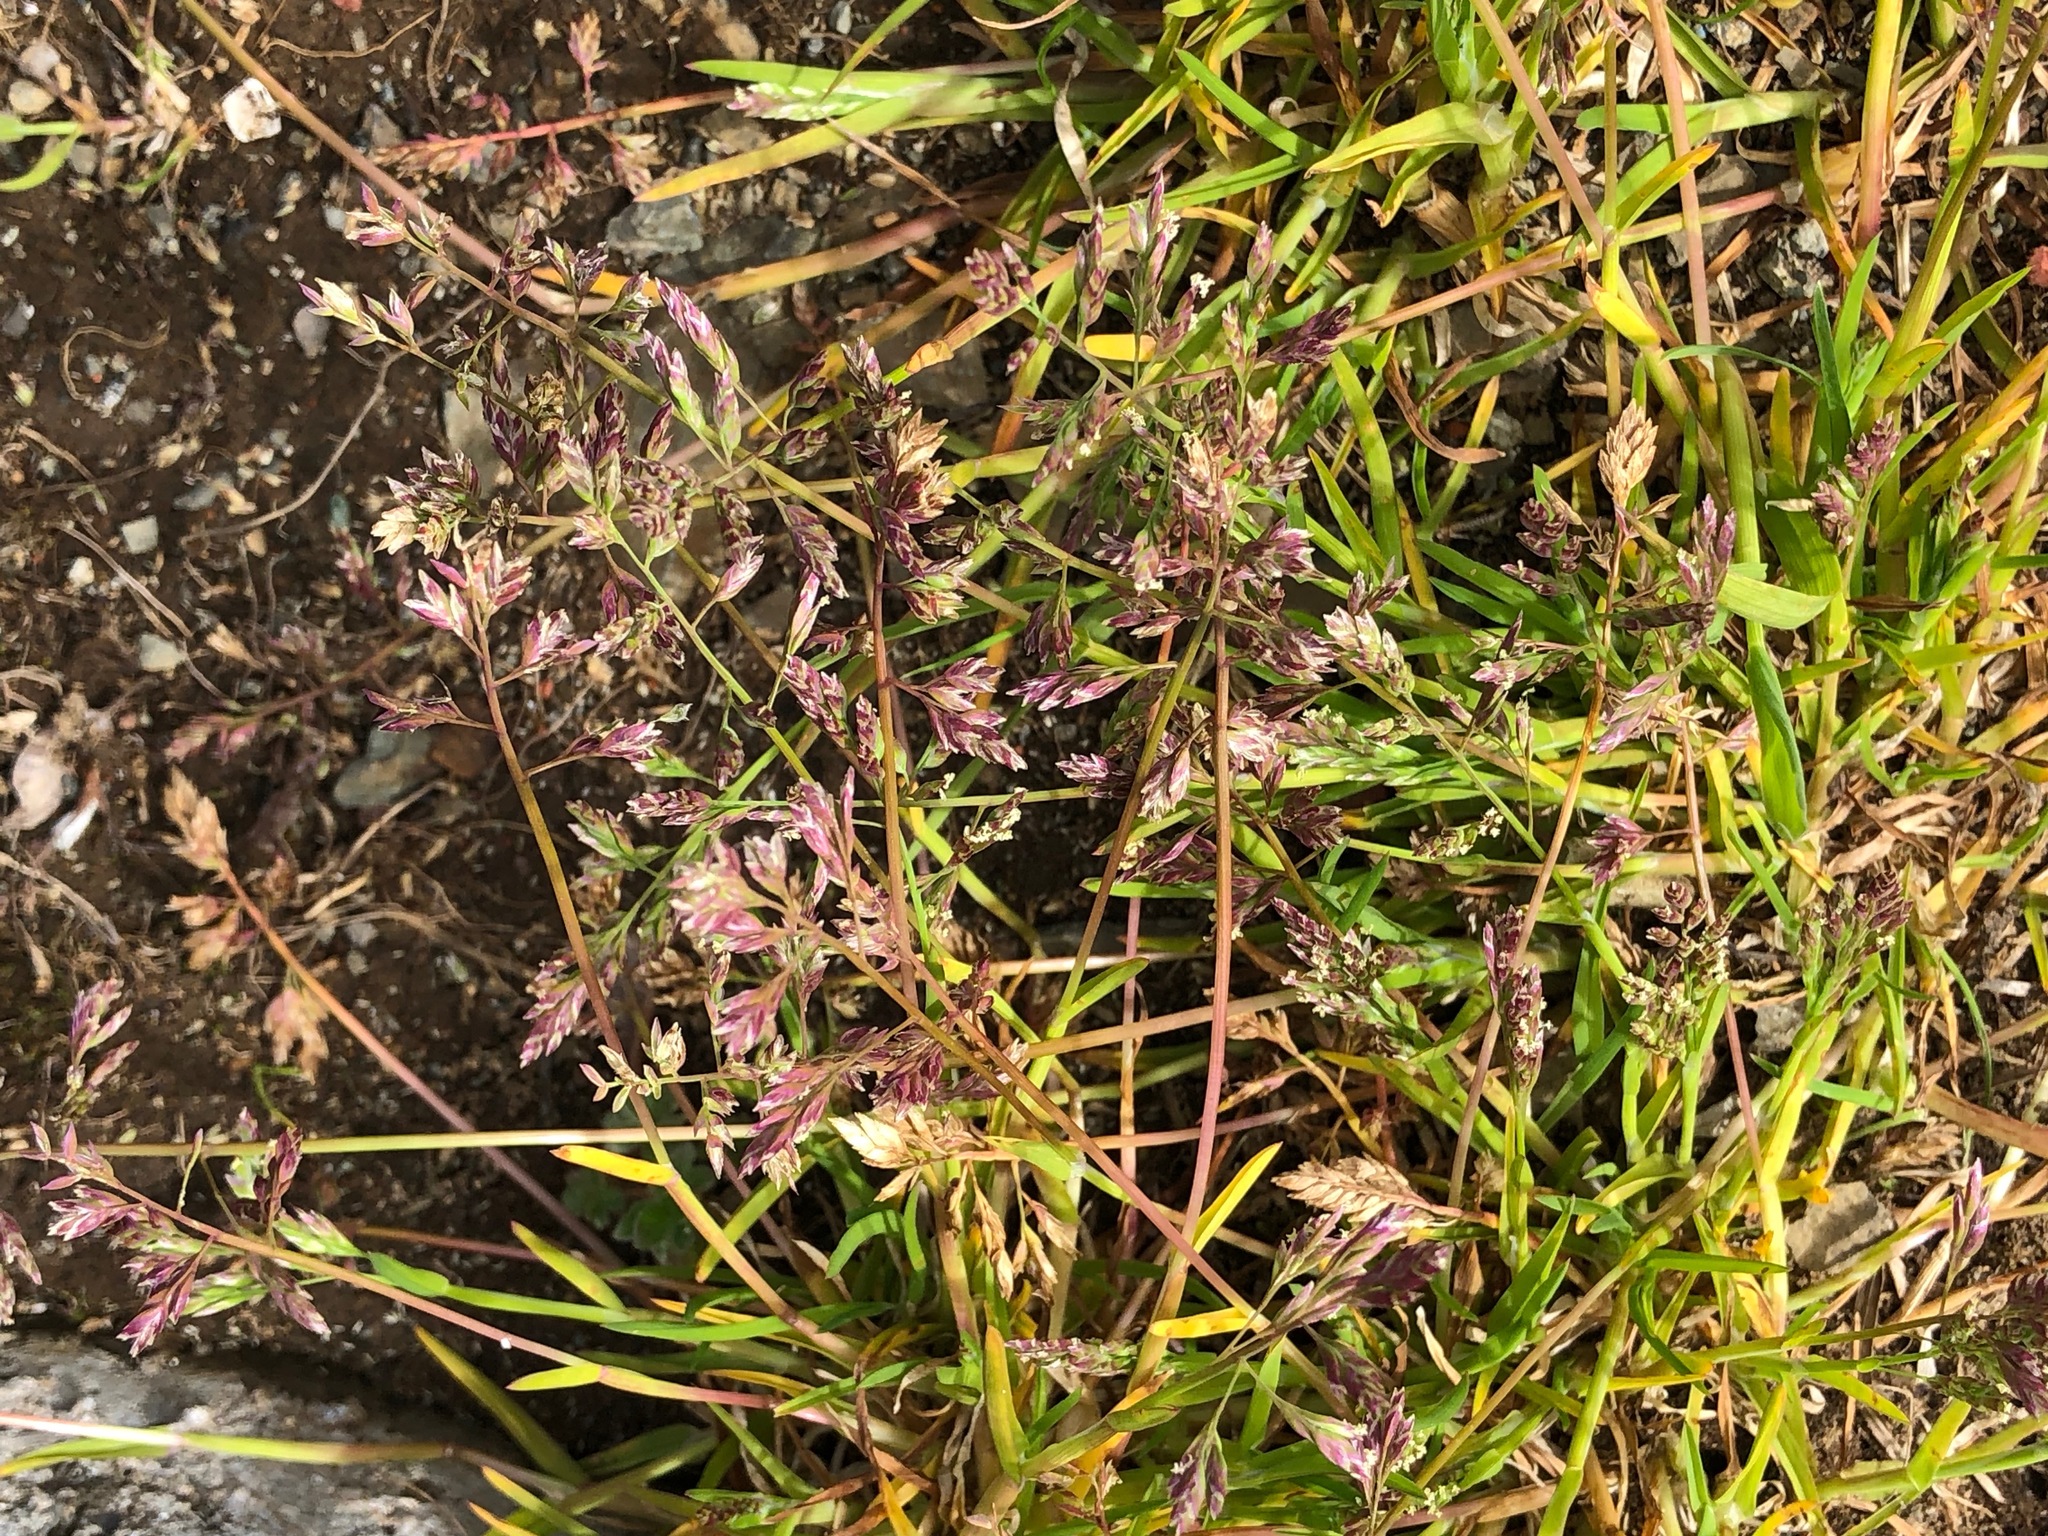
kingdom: Plantae
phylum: Tracheophyta
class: Liliopsida
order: Poales
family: Poaceae
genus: Poa
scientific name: Poa alpina
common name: Alpine bluegrass
